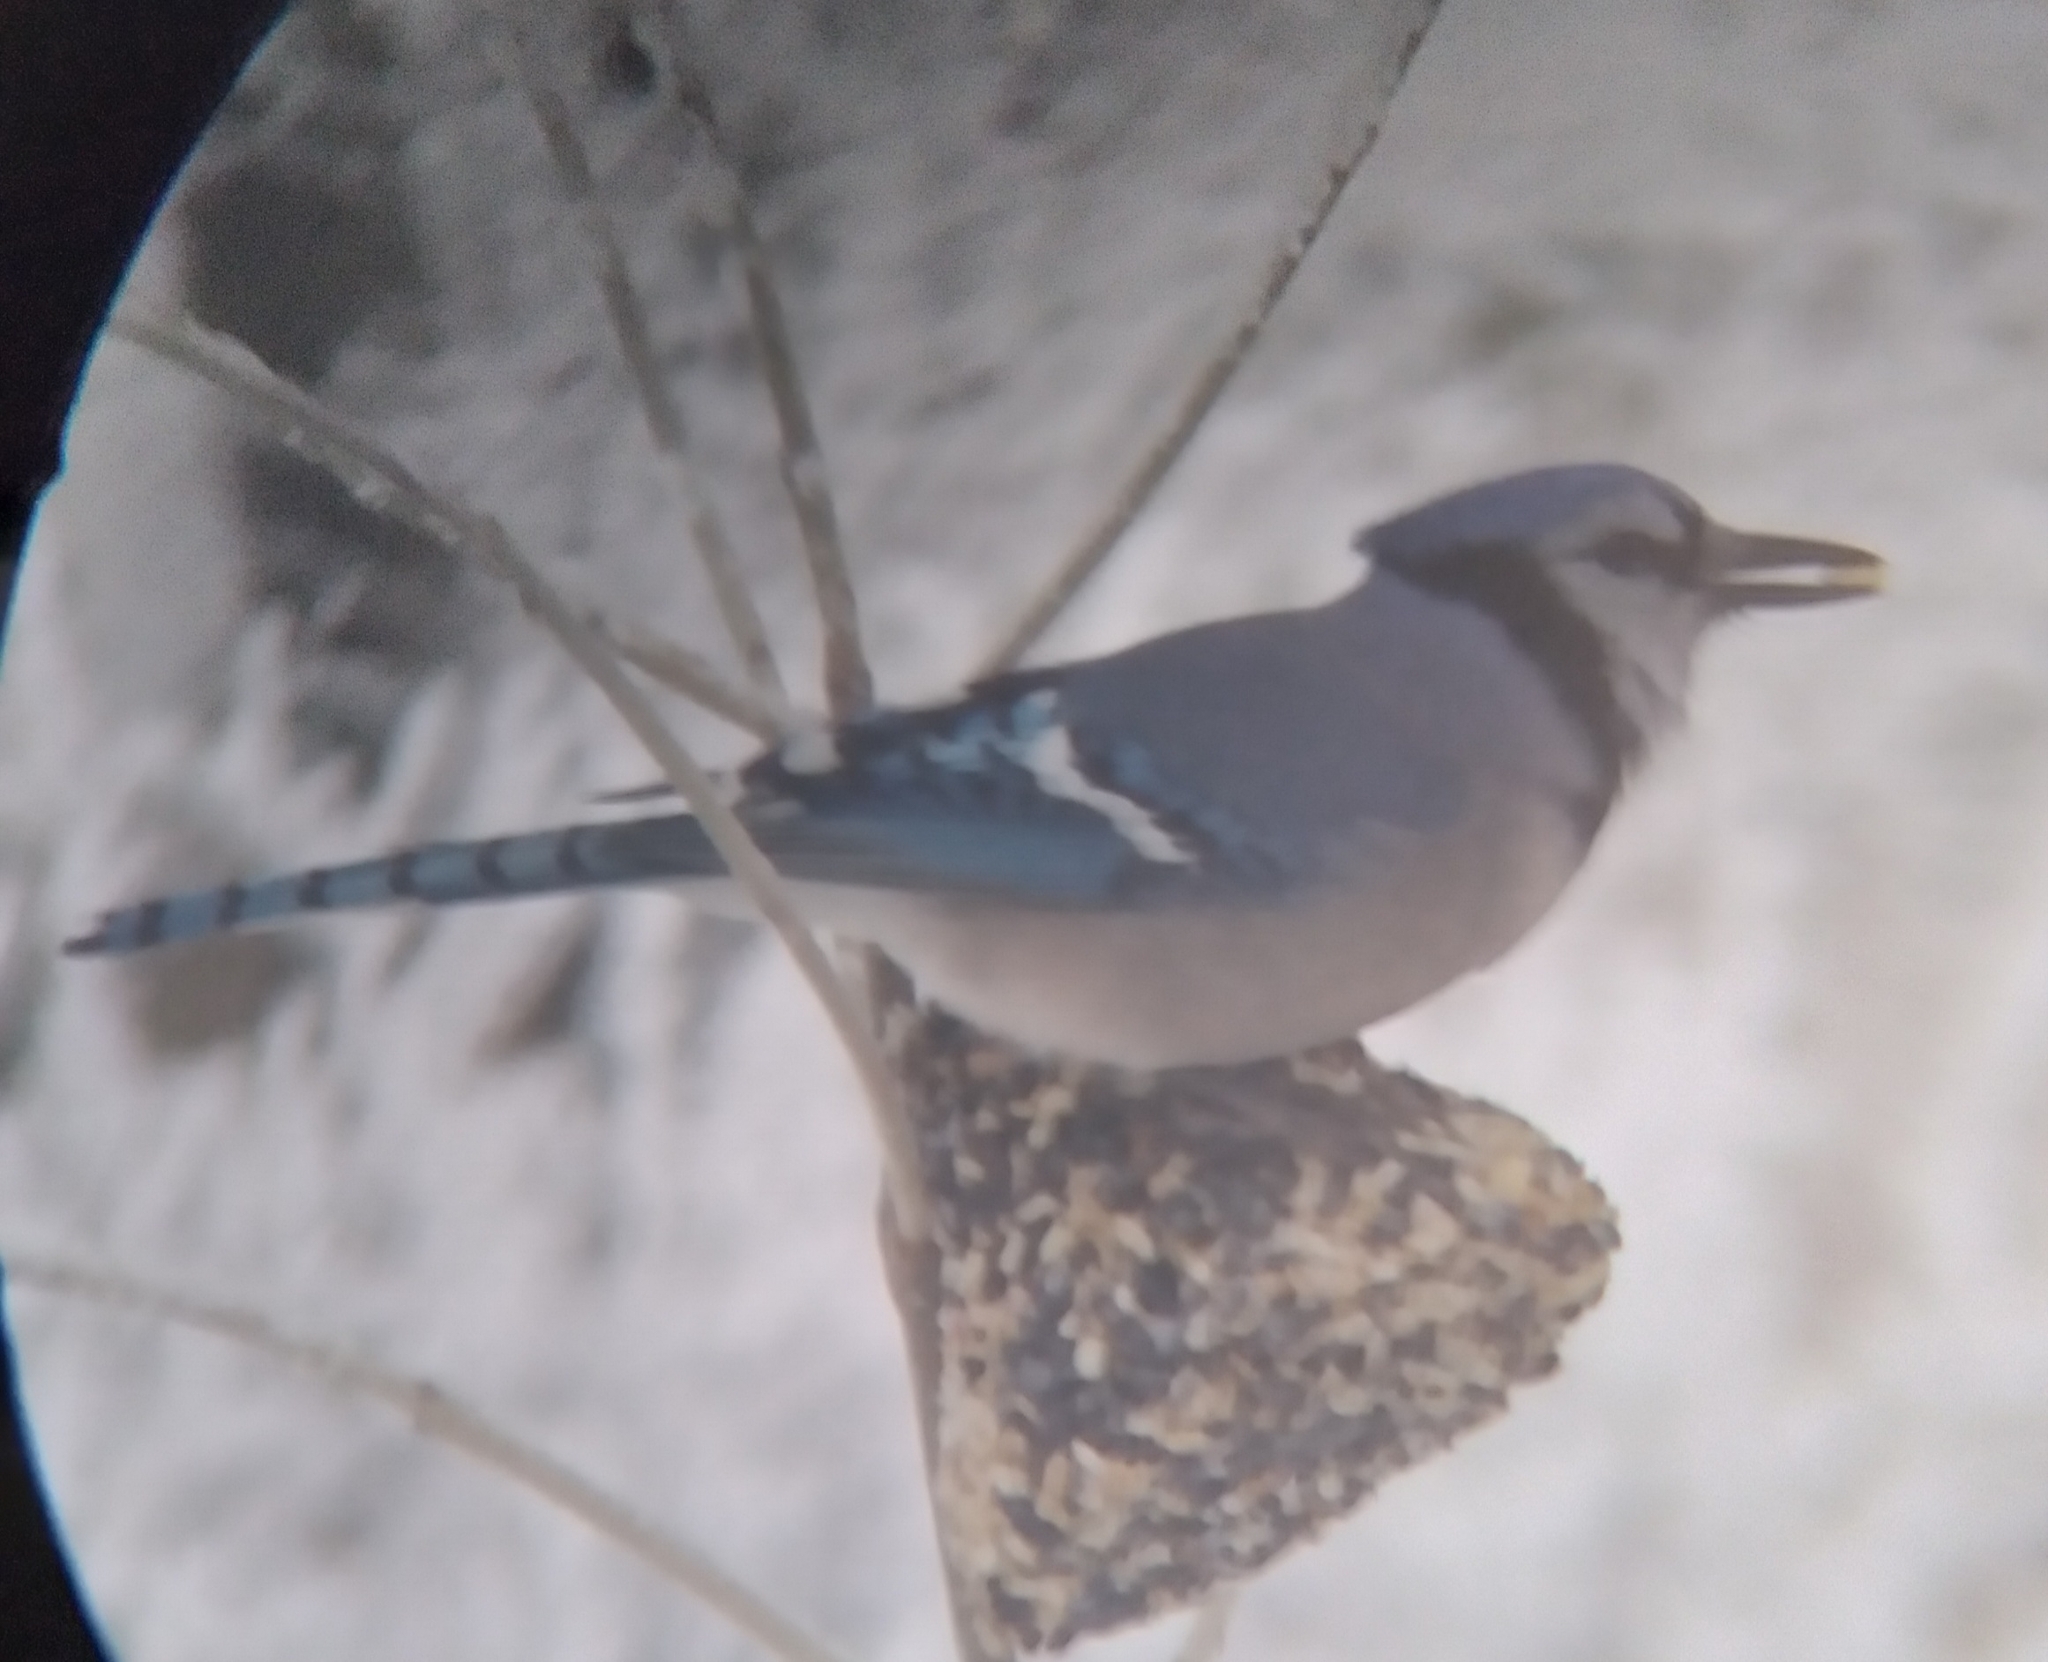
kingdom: Animalia
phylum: Chordata
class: Aves
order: Passeriformes
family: Corvidae
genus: Cyanocitta
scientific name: Cyanocitta cristata
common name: Blue jay
